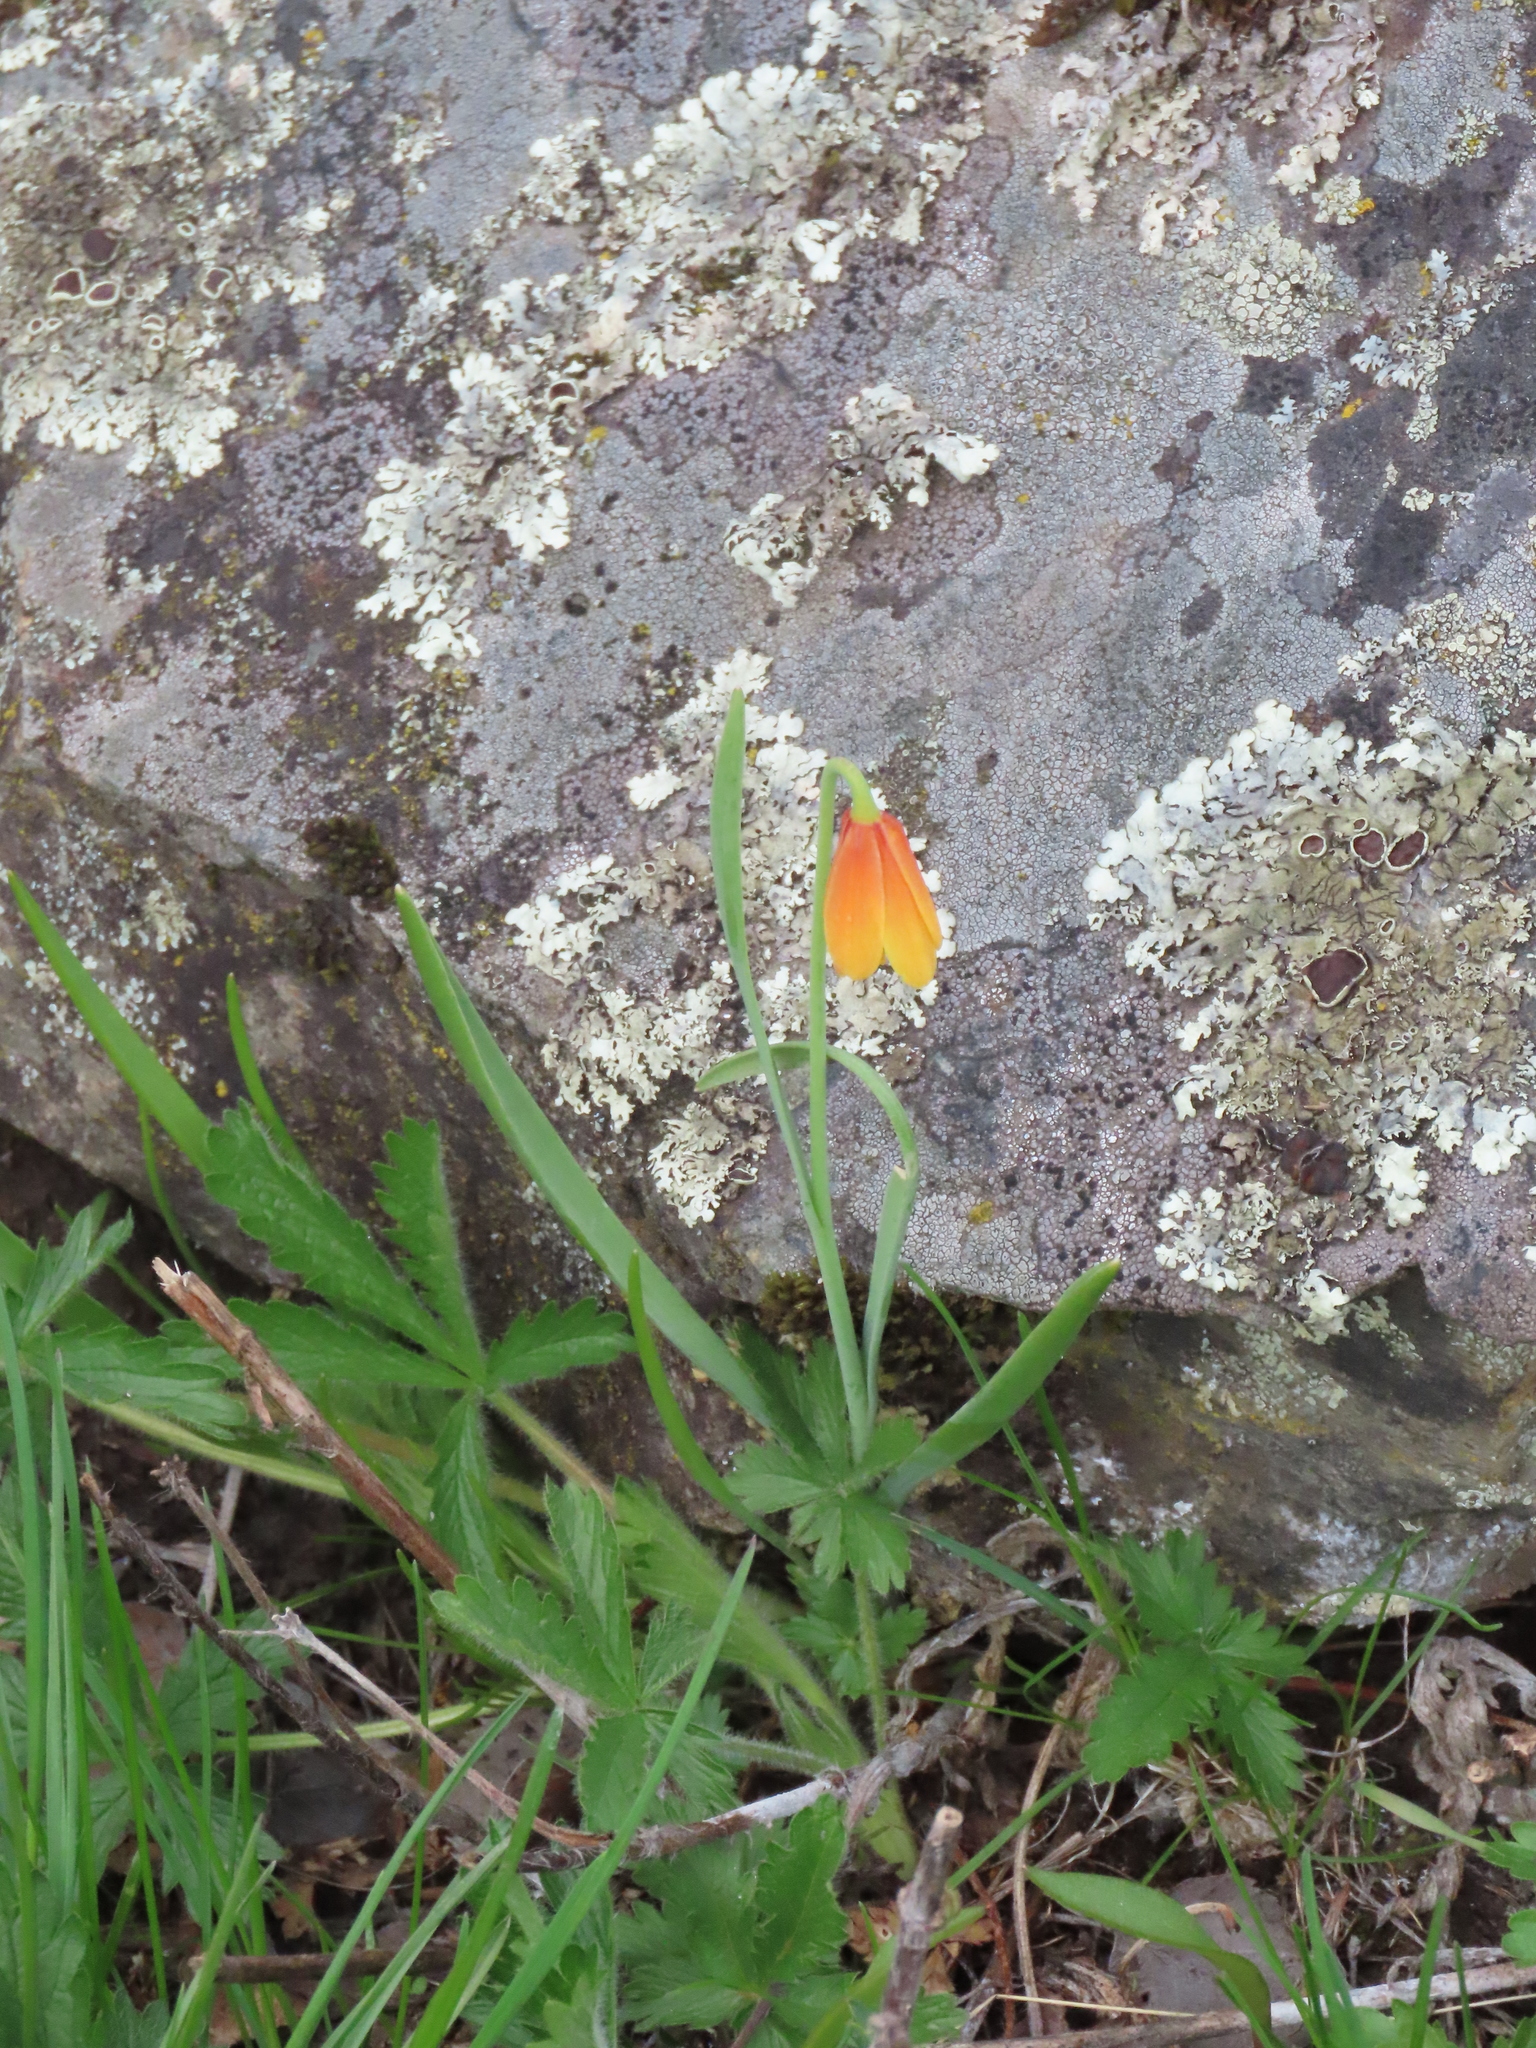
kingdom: Plantae
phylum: Tracheophyta
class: Liliopsida
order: Liliales
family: Liliaceae
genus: Fritillaria
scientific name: Fritillaria pudica
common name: Yellow fritillary
